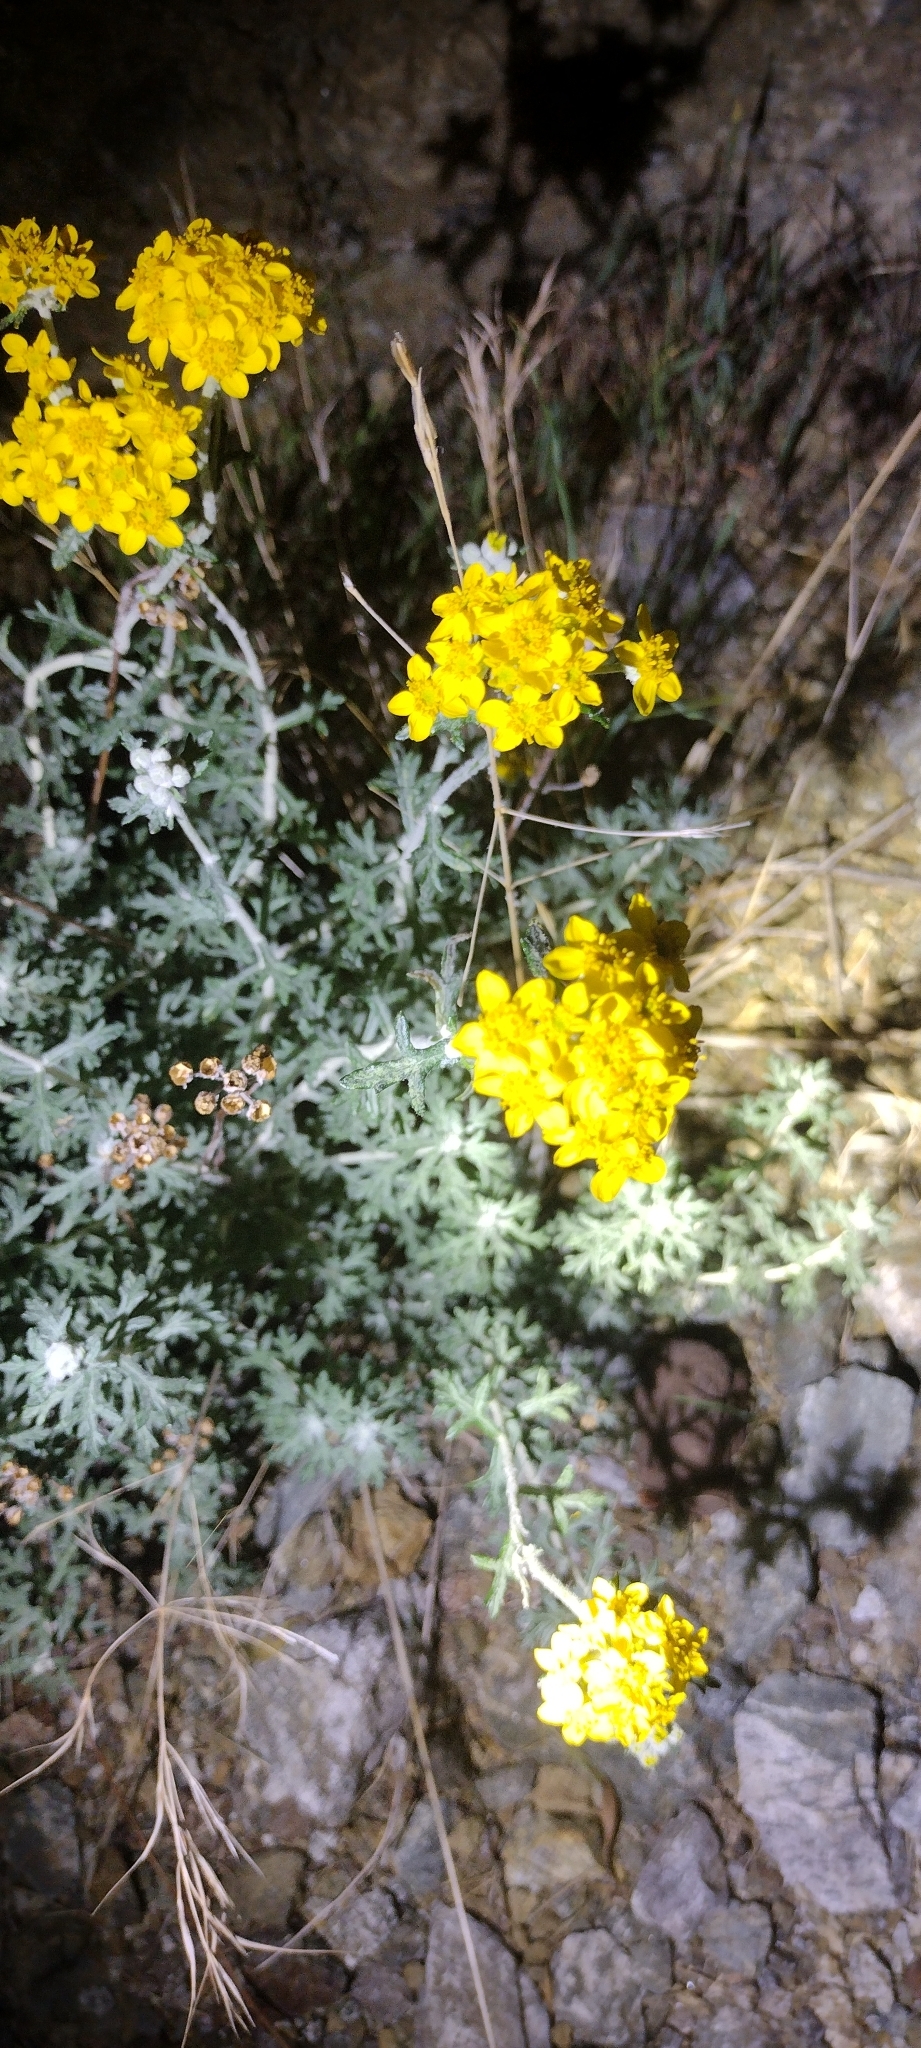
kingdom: Plantae
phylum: Tracheophyta
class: Magnoliopsida
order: Asterales
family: Asteraceae
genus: Eriophyllum
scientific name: Eriophyllum confertiflorum
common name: Golden-yarrow
